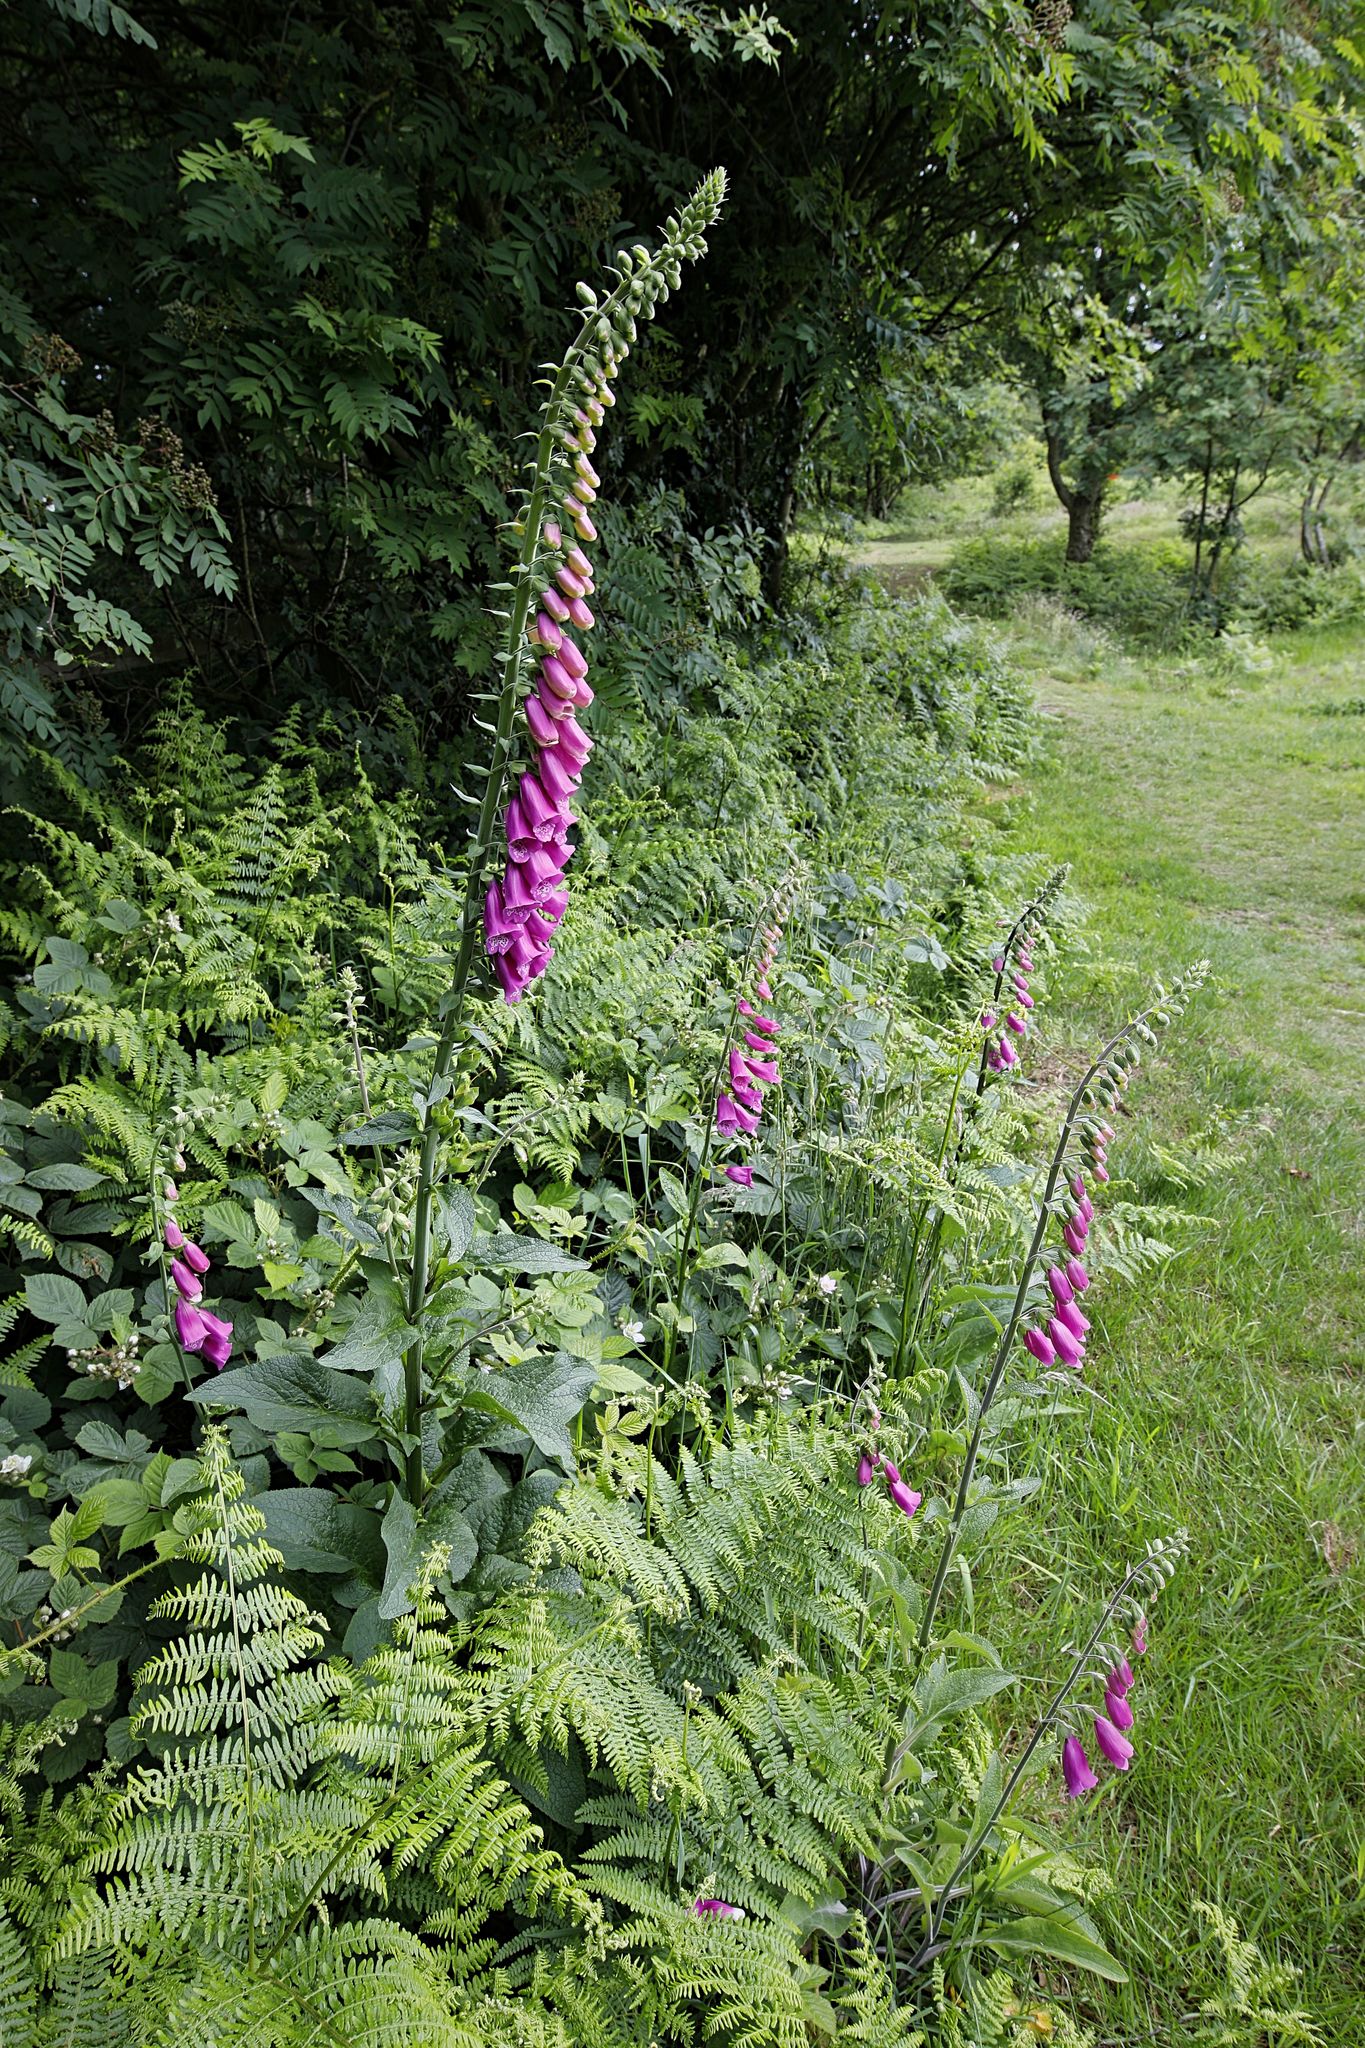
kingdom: Plantae
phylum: Tracheophyta
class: Magnoliopsida
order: Lamiales
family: Plantaginaceae
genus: Digitalis
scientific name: Digitalis purpurea
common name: Foxglove
